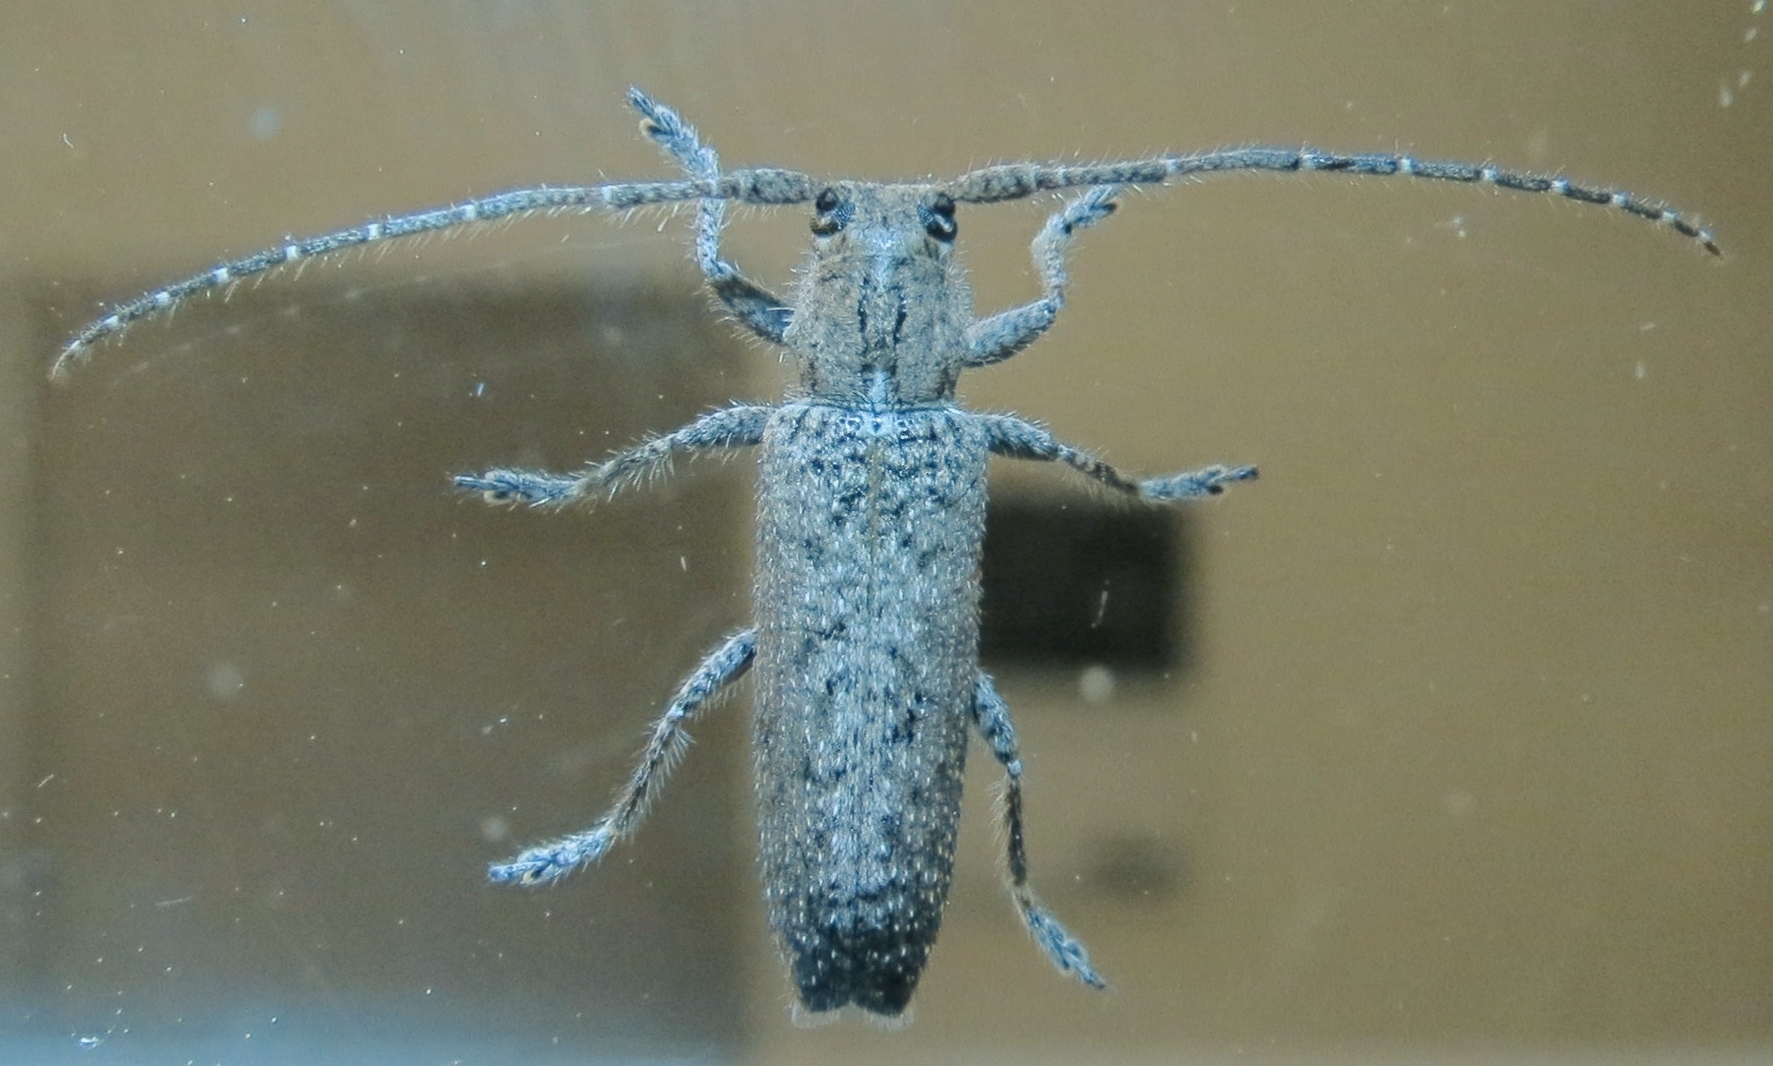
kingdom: Animalia
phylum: Arthropoda
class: Insecta
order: Coleoptera
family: Cerambycidae
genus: Ataxia
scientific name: Ataxia crypta
